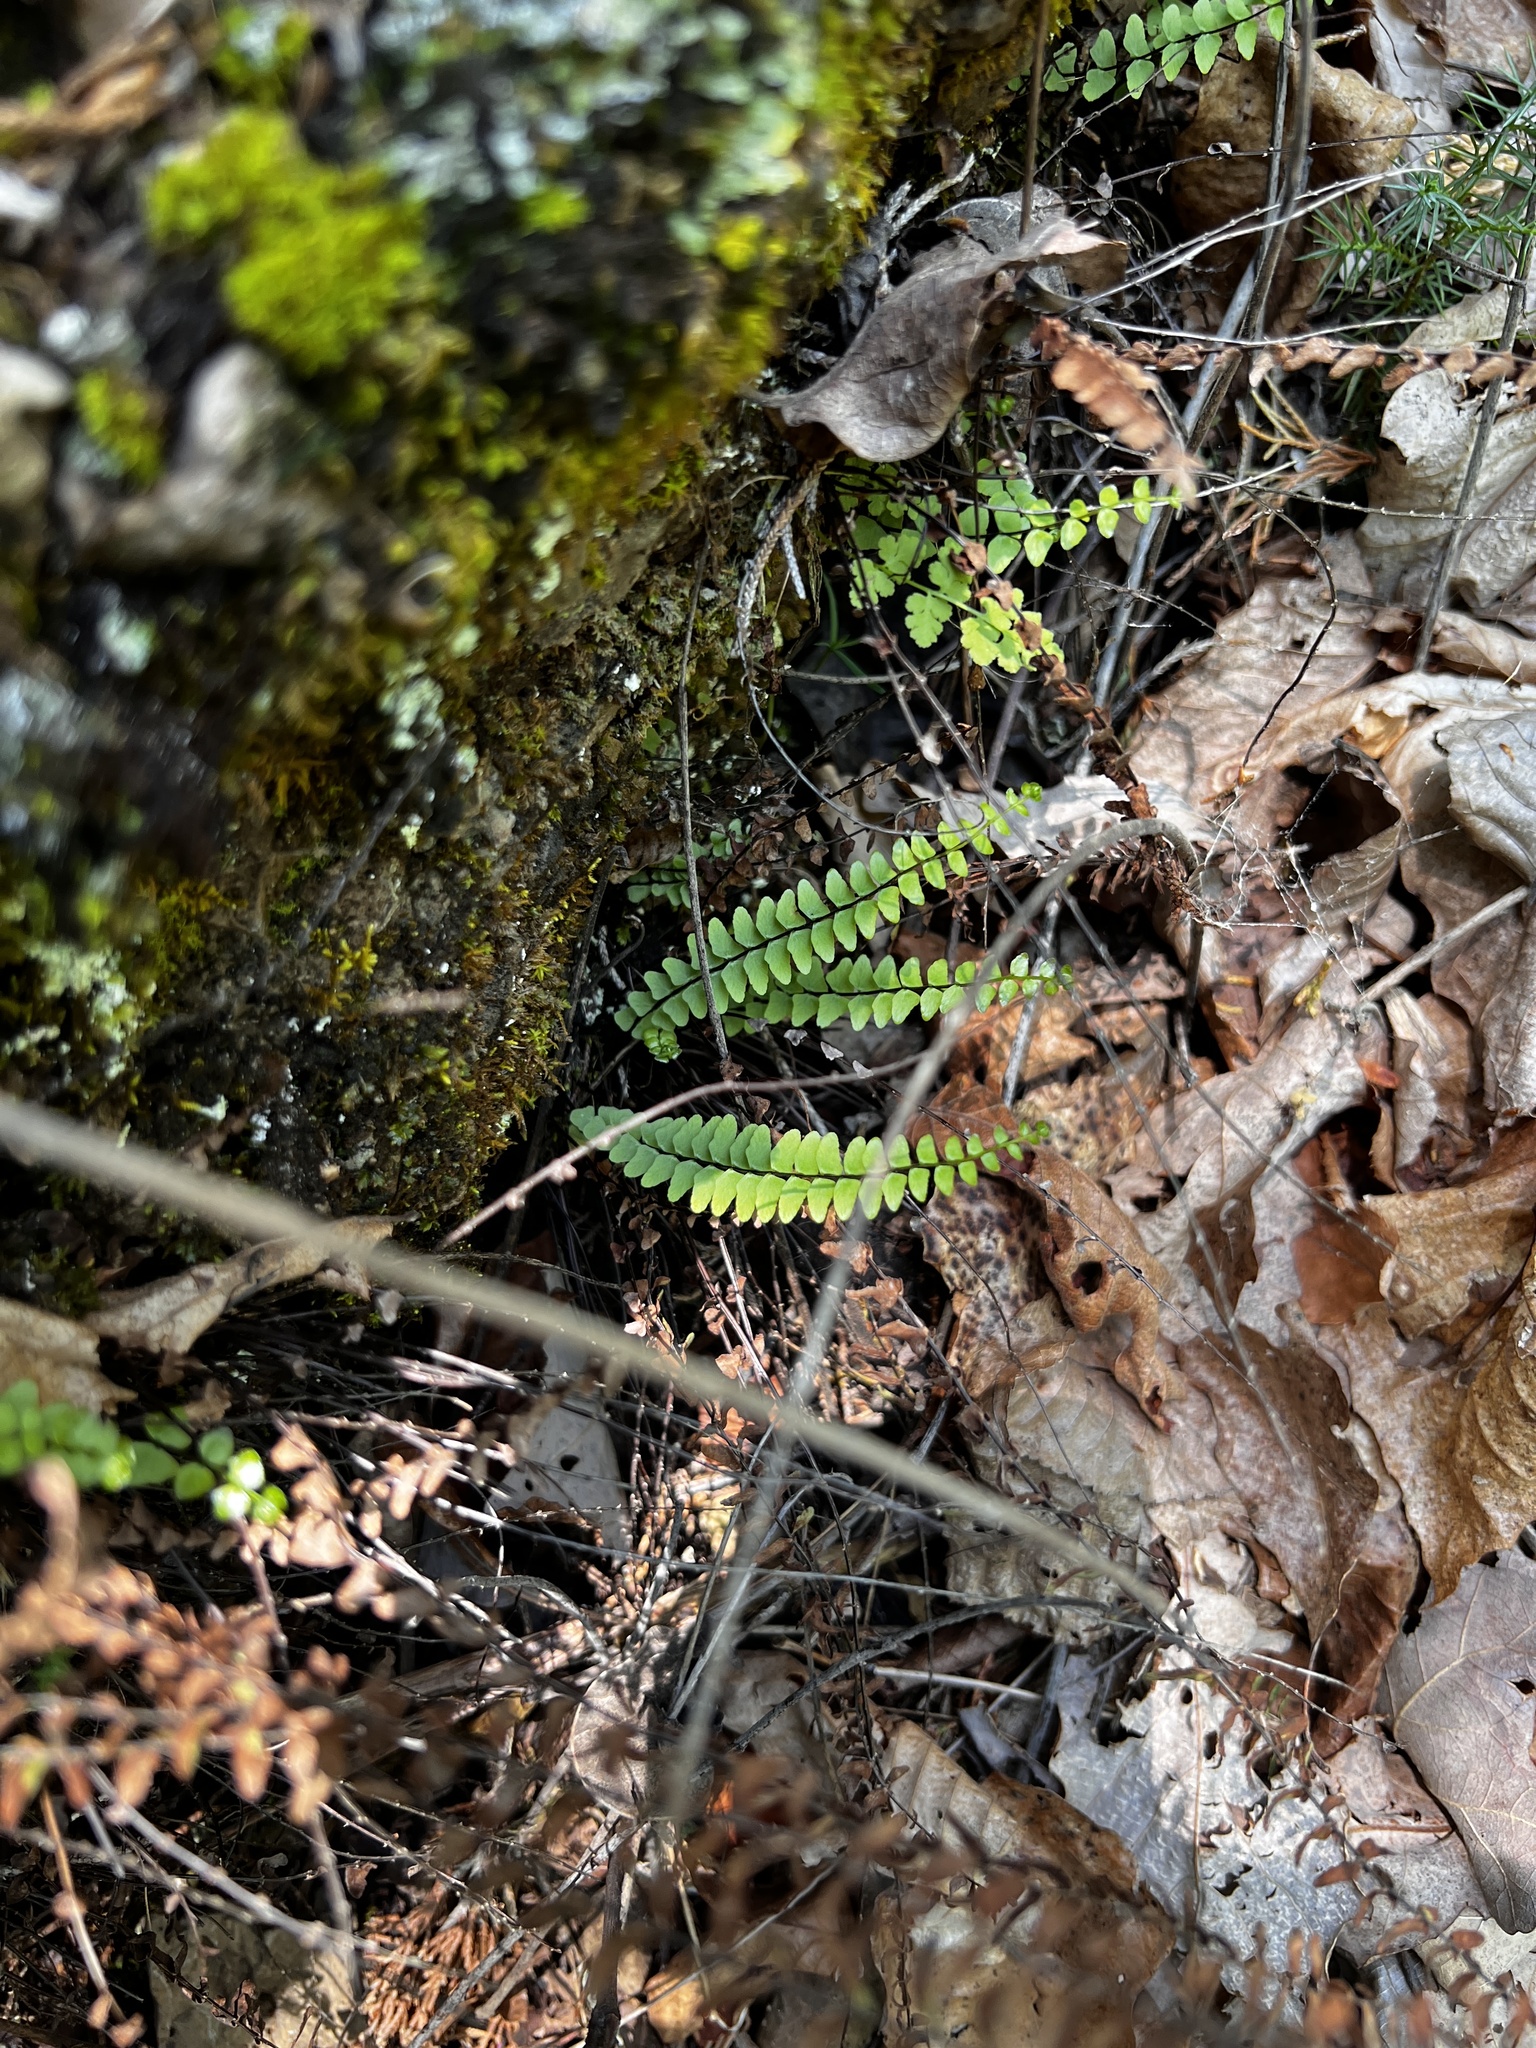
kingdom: Plantae
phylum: Tracheophyta
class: Polypodiopsida
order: Polypodiales
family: Aspleniaceae
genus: Asplenium
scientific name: Asplenium resiliens
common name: Blackstem spleenwort
